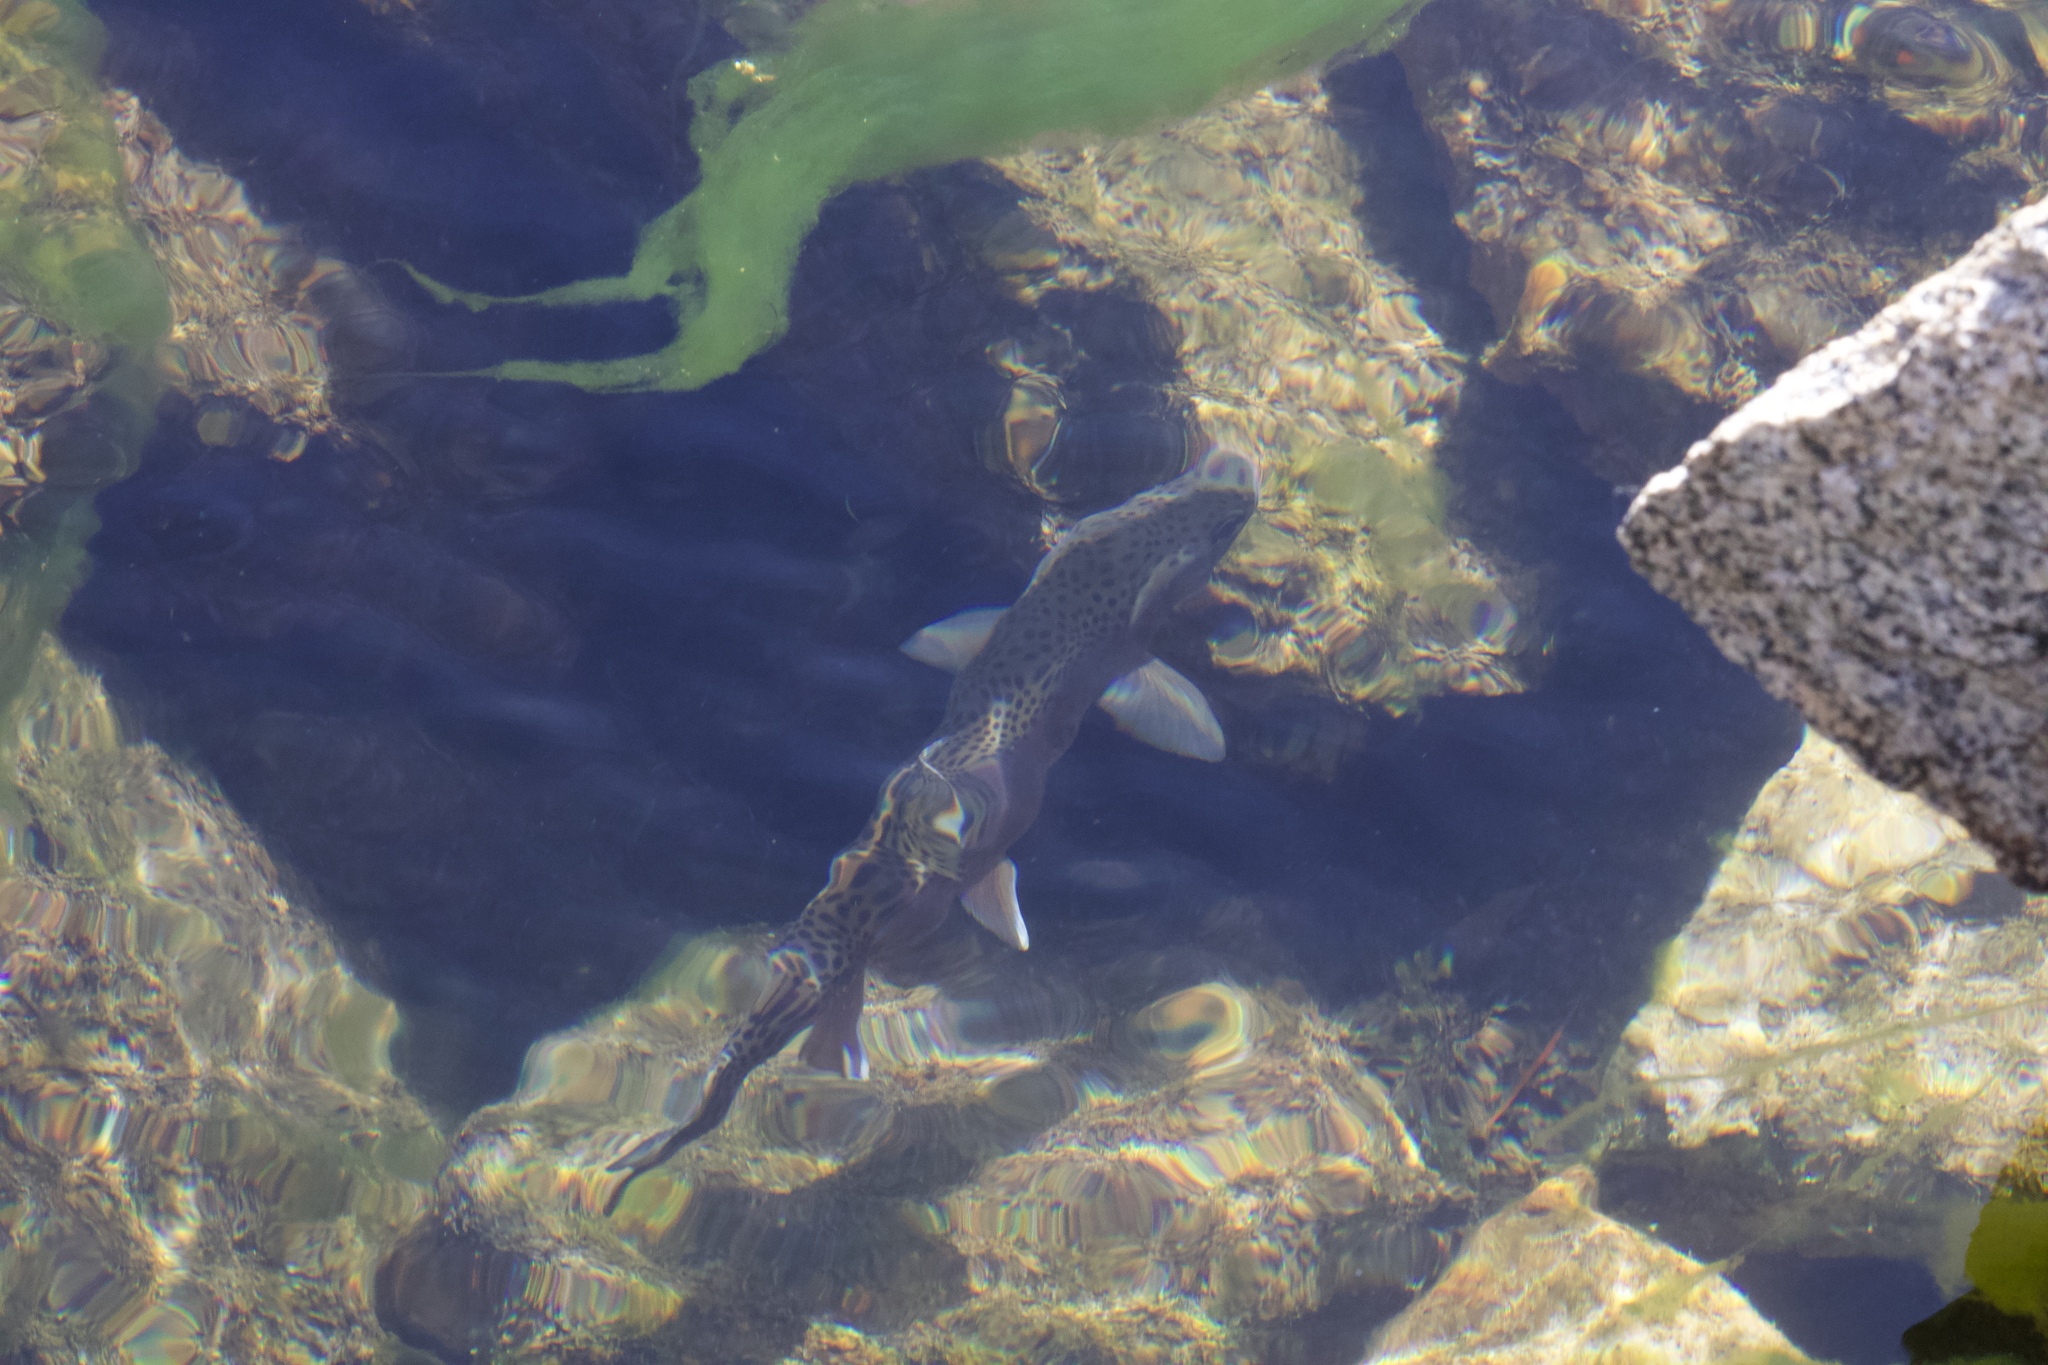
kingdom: Animalia
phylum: Chordata
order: Salmoniformes
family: Salmonidae
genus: Oncorhynchus
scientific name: Oncorhynchus mykiss
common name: Rainbow trout
